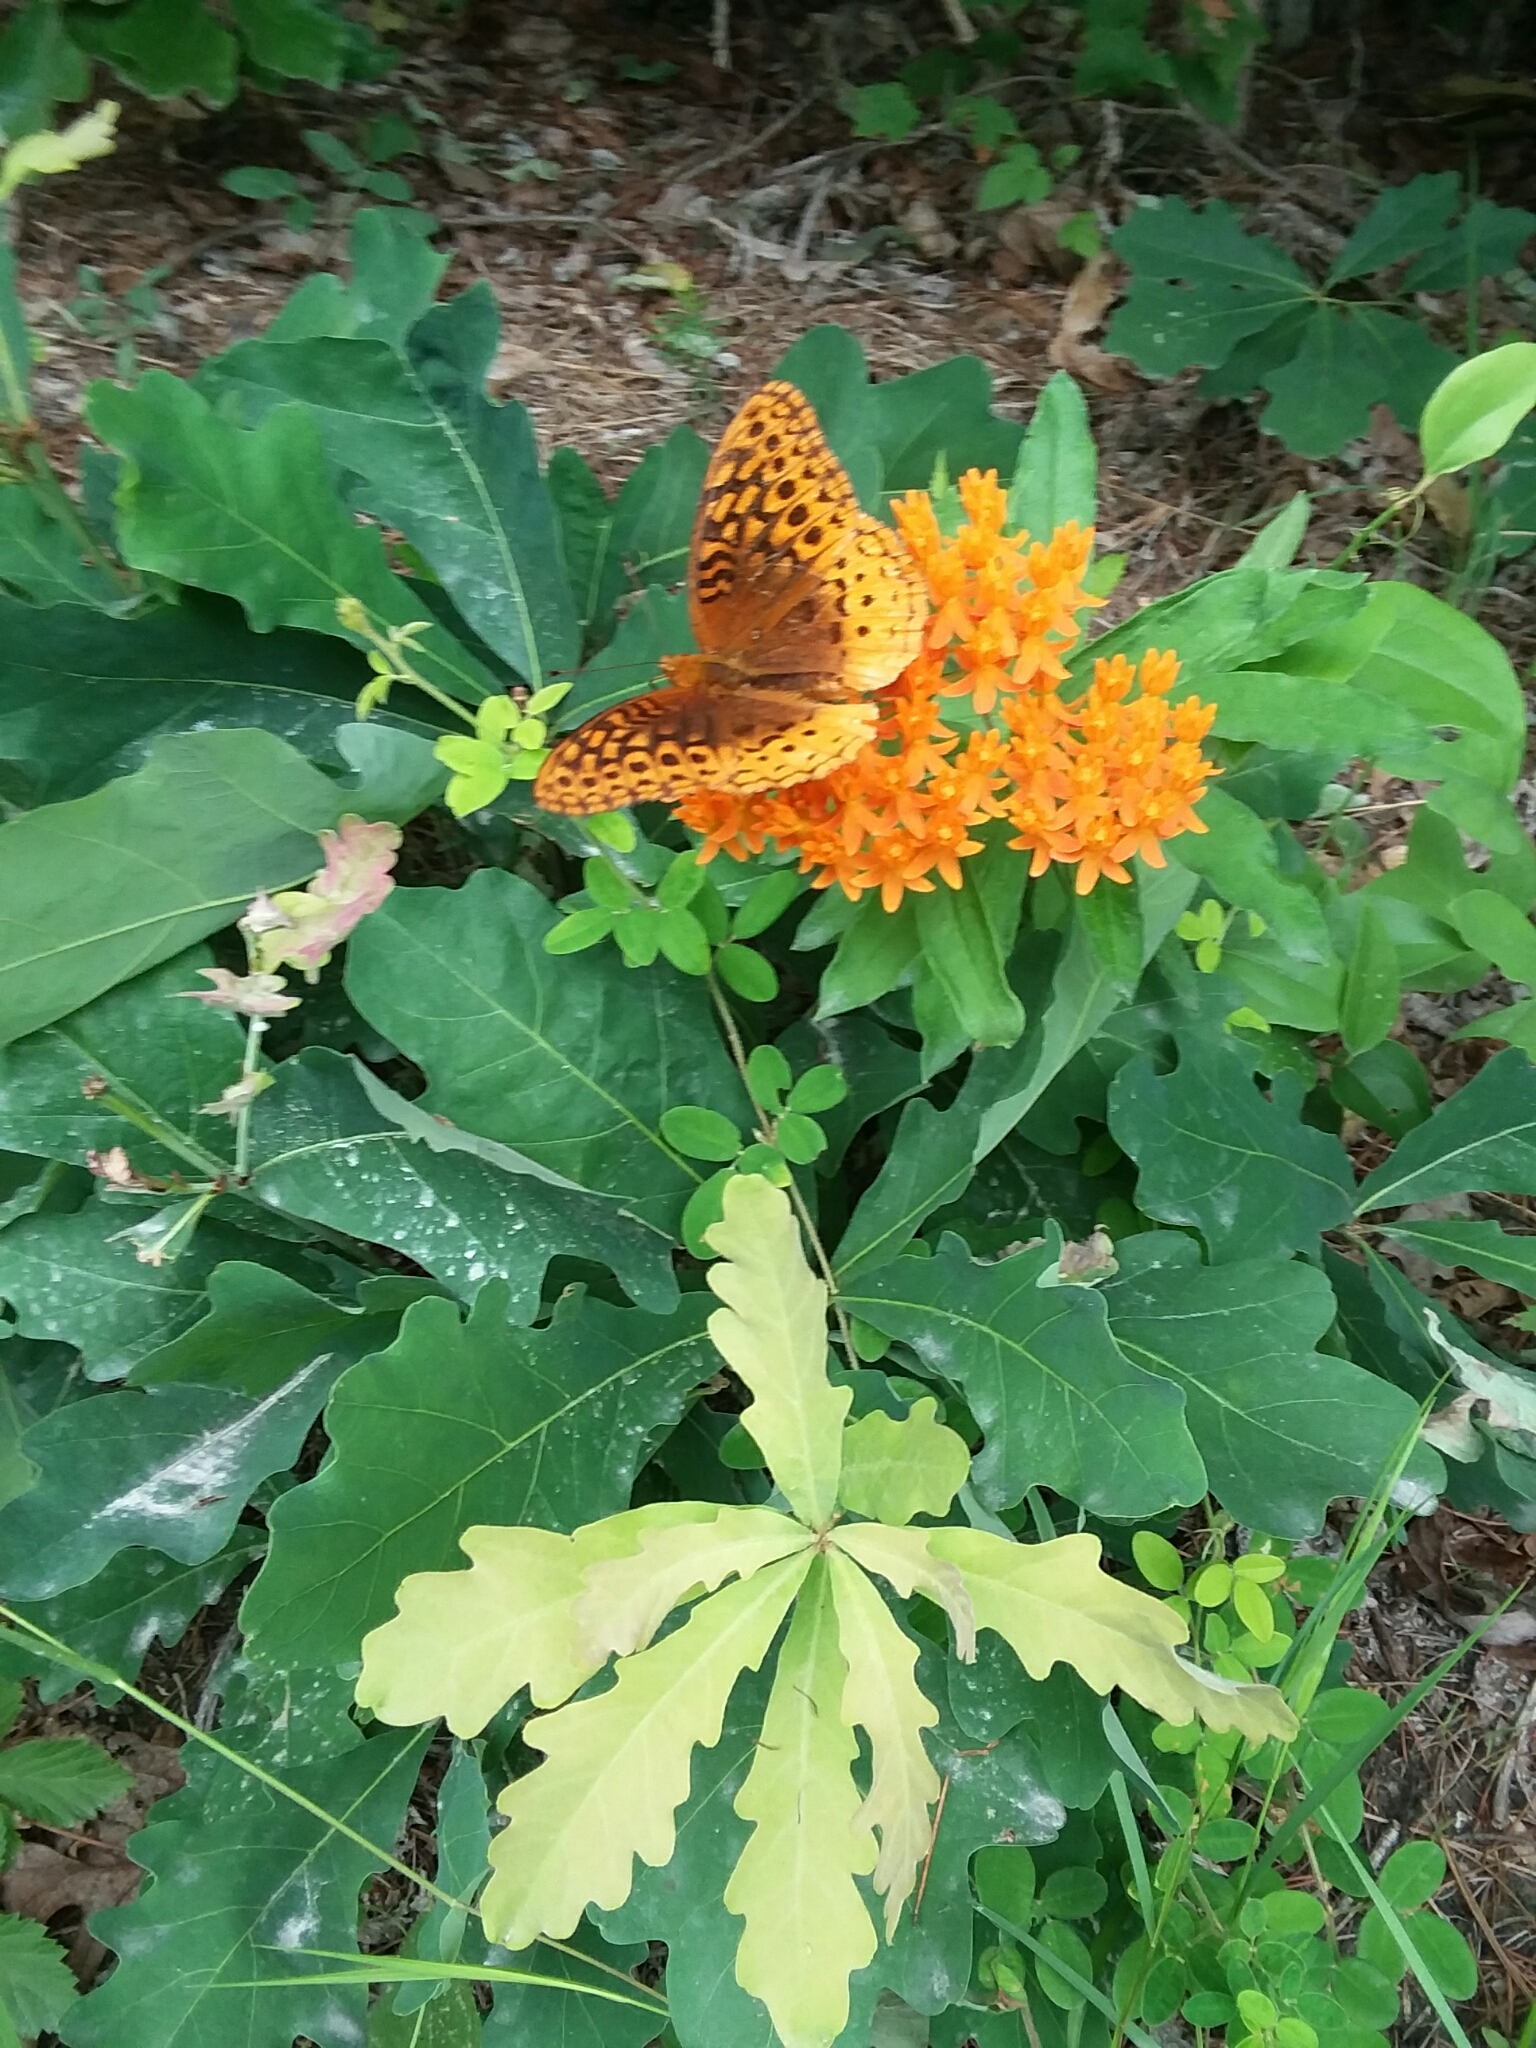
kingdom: Animalia
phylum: Arthropoda
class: Insecta
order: Lepidoptera
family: Nymphalidae
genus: Speyeria
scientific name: Speyeria cybele
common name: Great spangled fritillary
